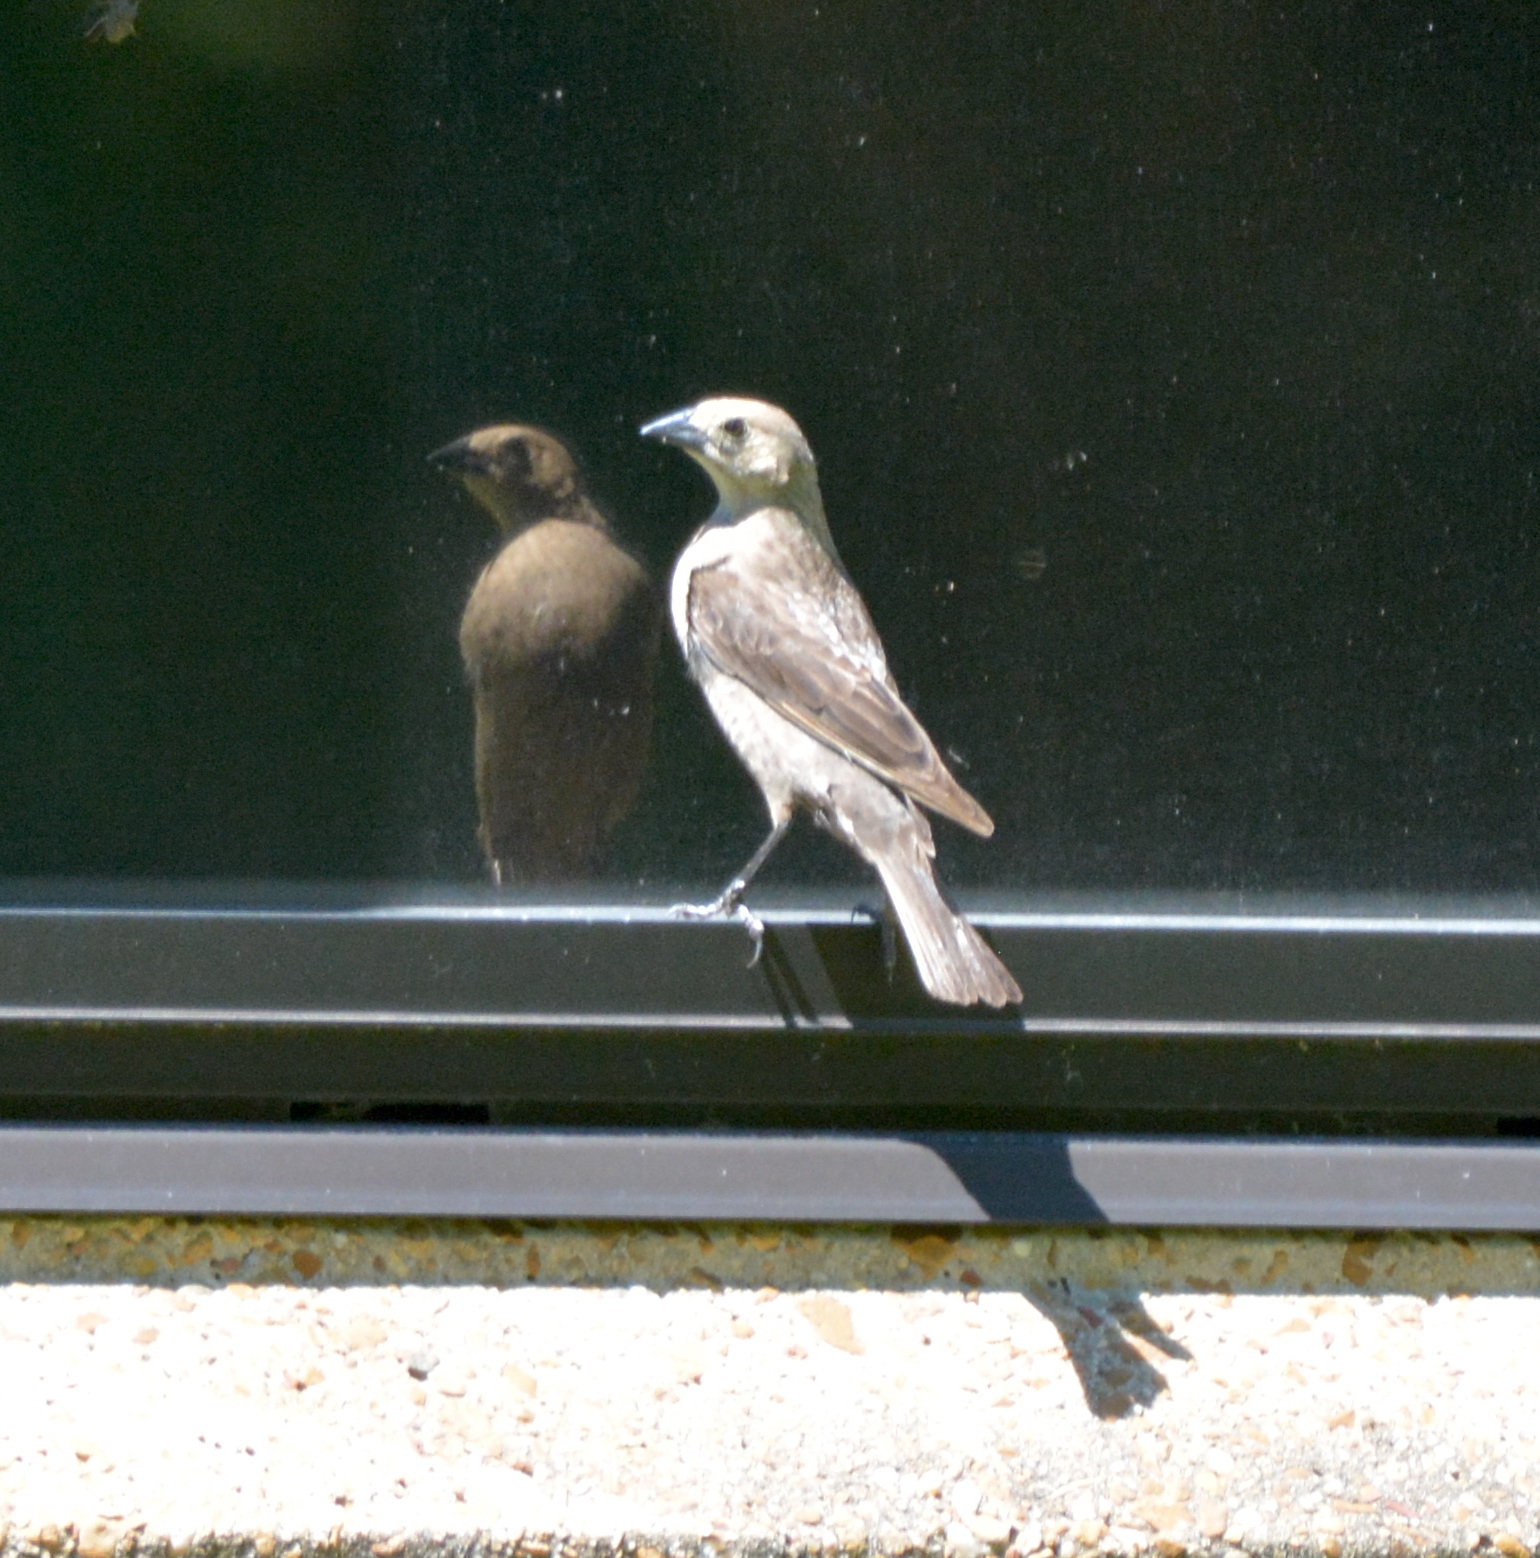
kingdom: Animalia
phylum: Chordata
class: Aves
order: Passeriformes
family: Icteridae
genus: Molothrus
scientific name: Molothrus ater
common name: Brown-headed cowbird
